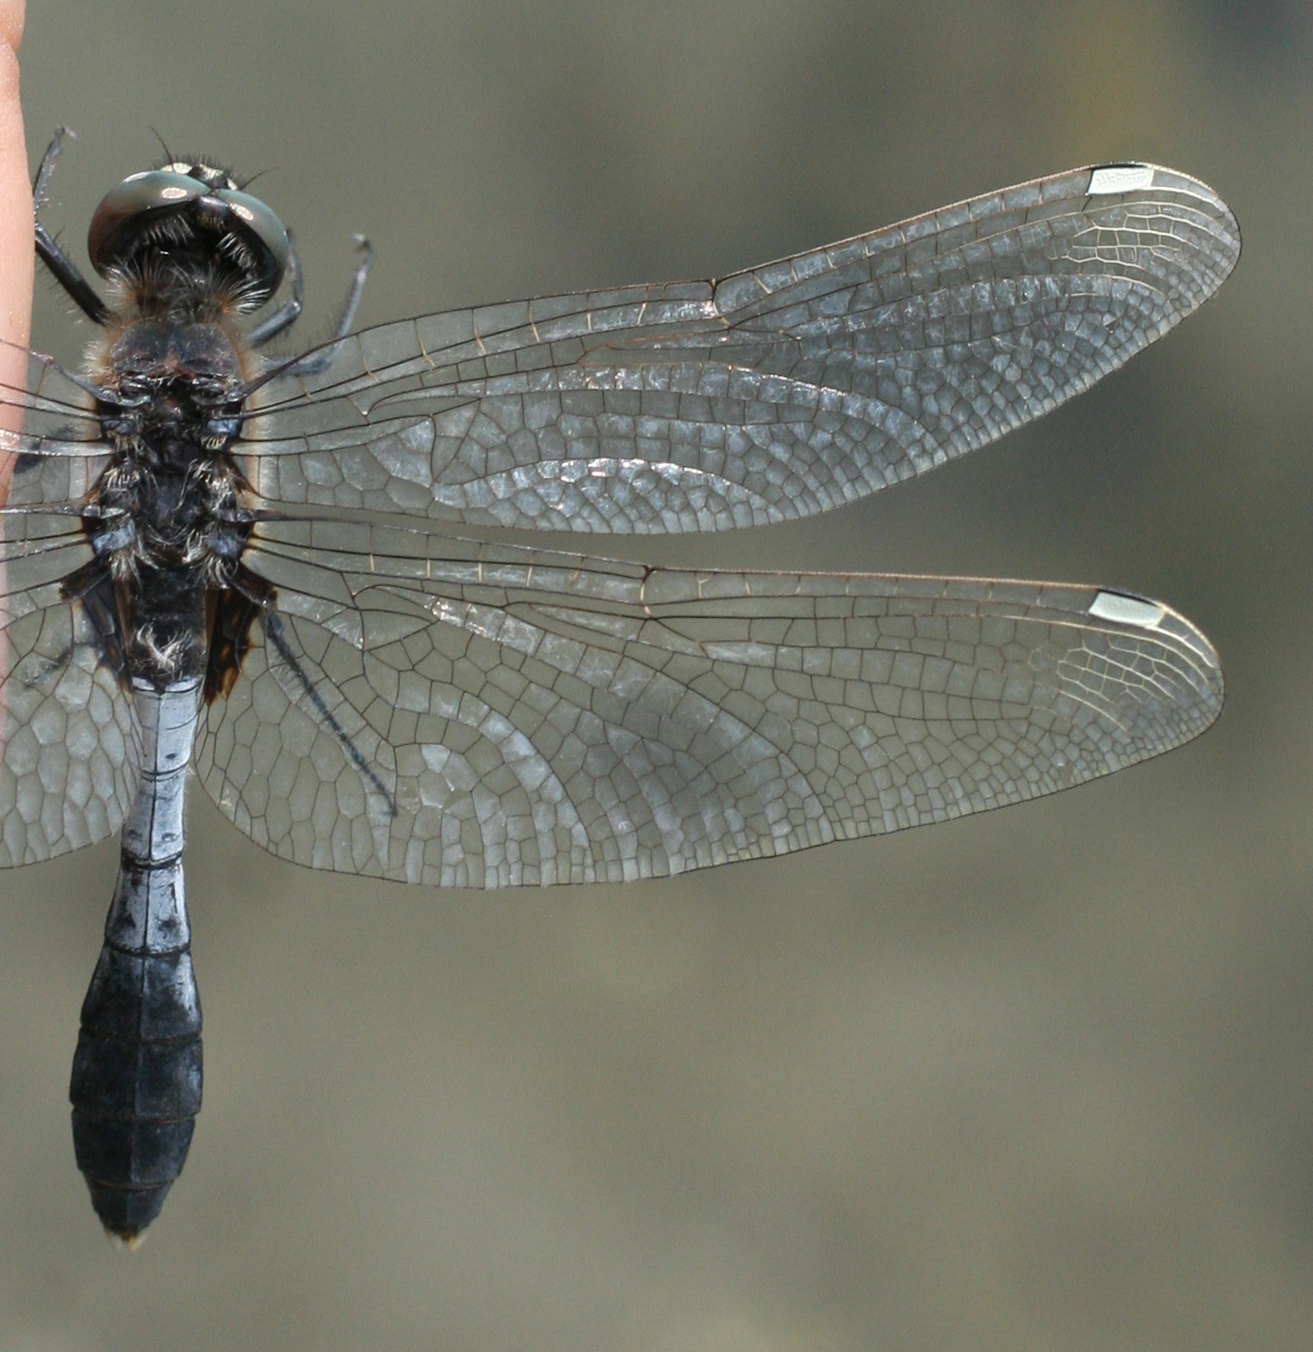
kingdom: Animalia
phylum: Arthropoda
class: Insecta
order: Odonata
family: Libellulidae
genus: Leucorrhinia
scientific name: Leucorrhinia caudalis
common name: Lilypad whiteface
